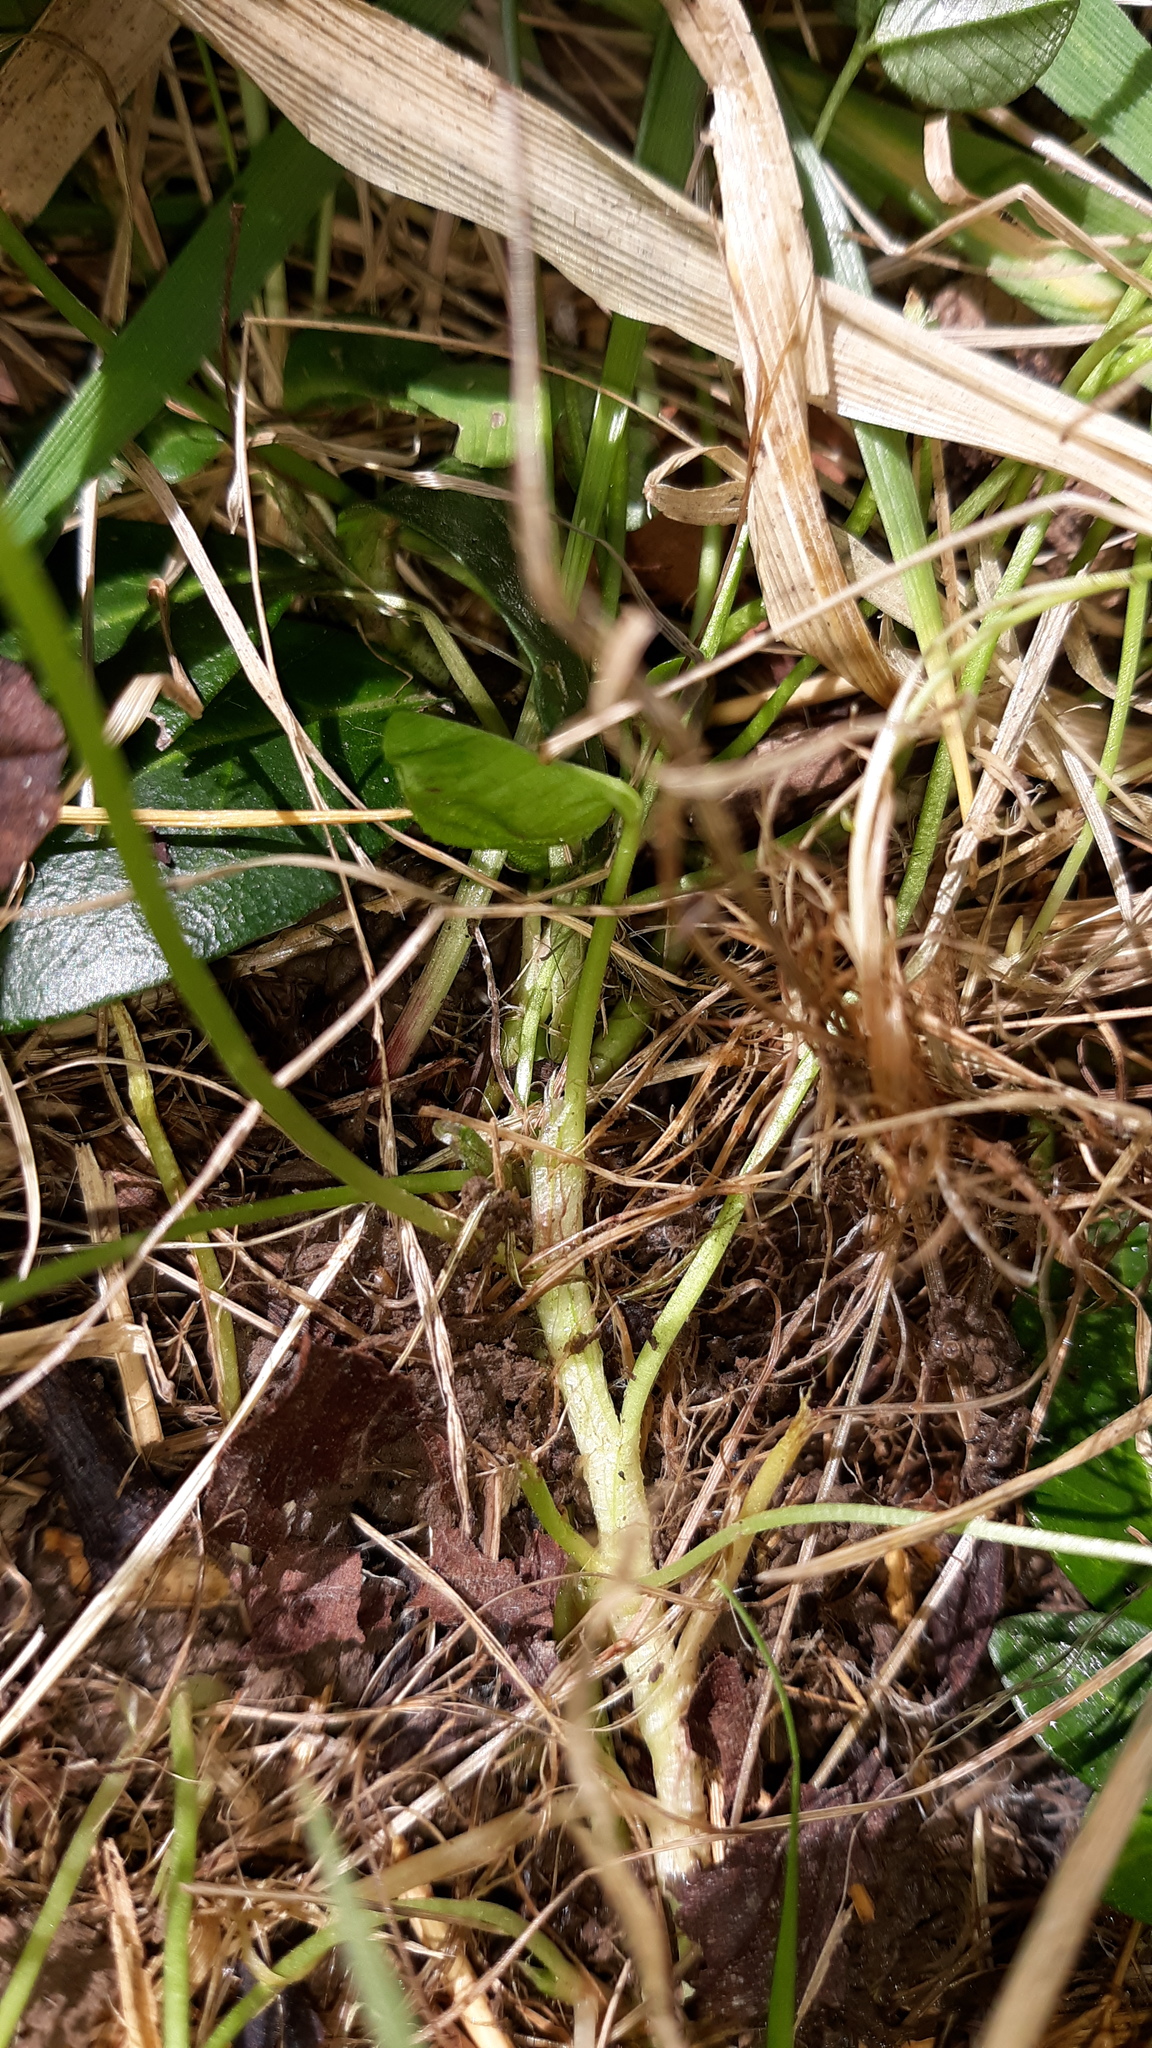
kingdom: Plantae
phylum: Tracheophyta
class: Magnoliopsida
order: Fabales
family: Fabaceae
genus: Trifolium
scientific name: Trifolium repens
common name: White clover
